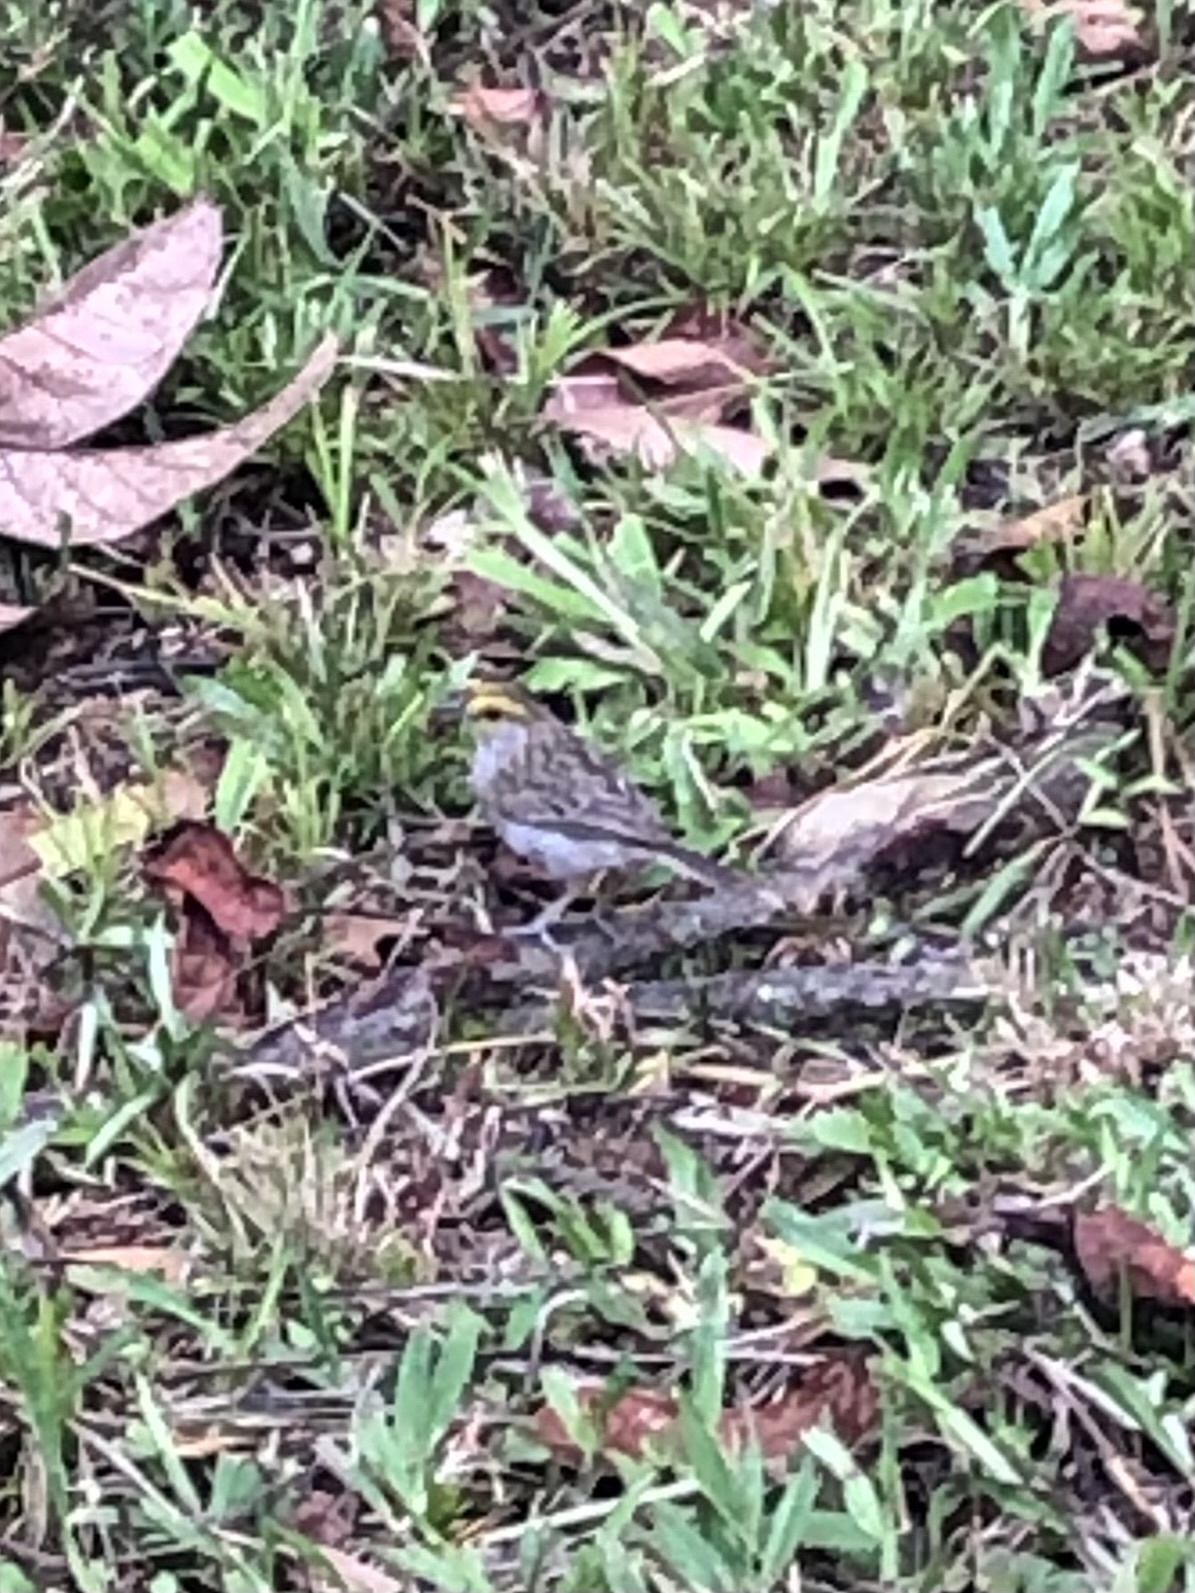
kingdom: Animalia
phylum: Chordata
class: Aves
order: Passeriformes
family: Passerellidae
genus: Ammodramus
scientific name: Ammodramus aurifrons
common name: Yellow-browed sparrow
